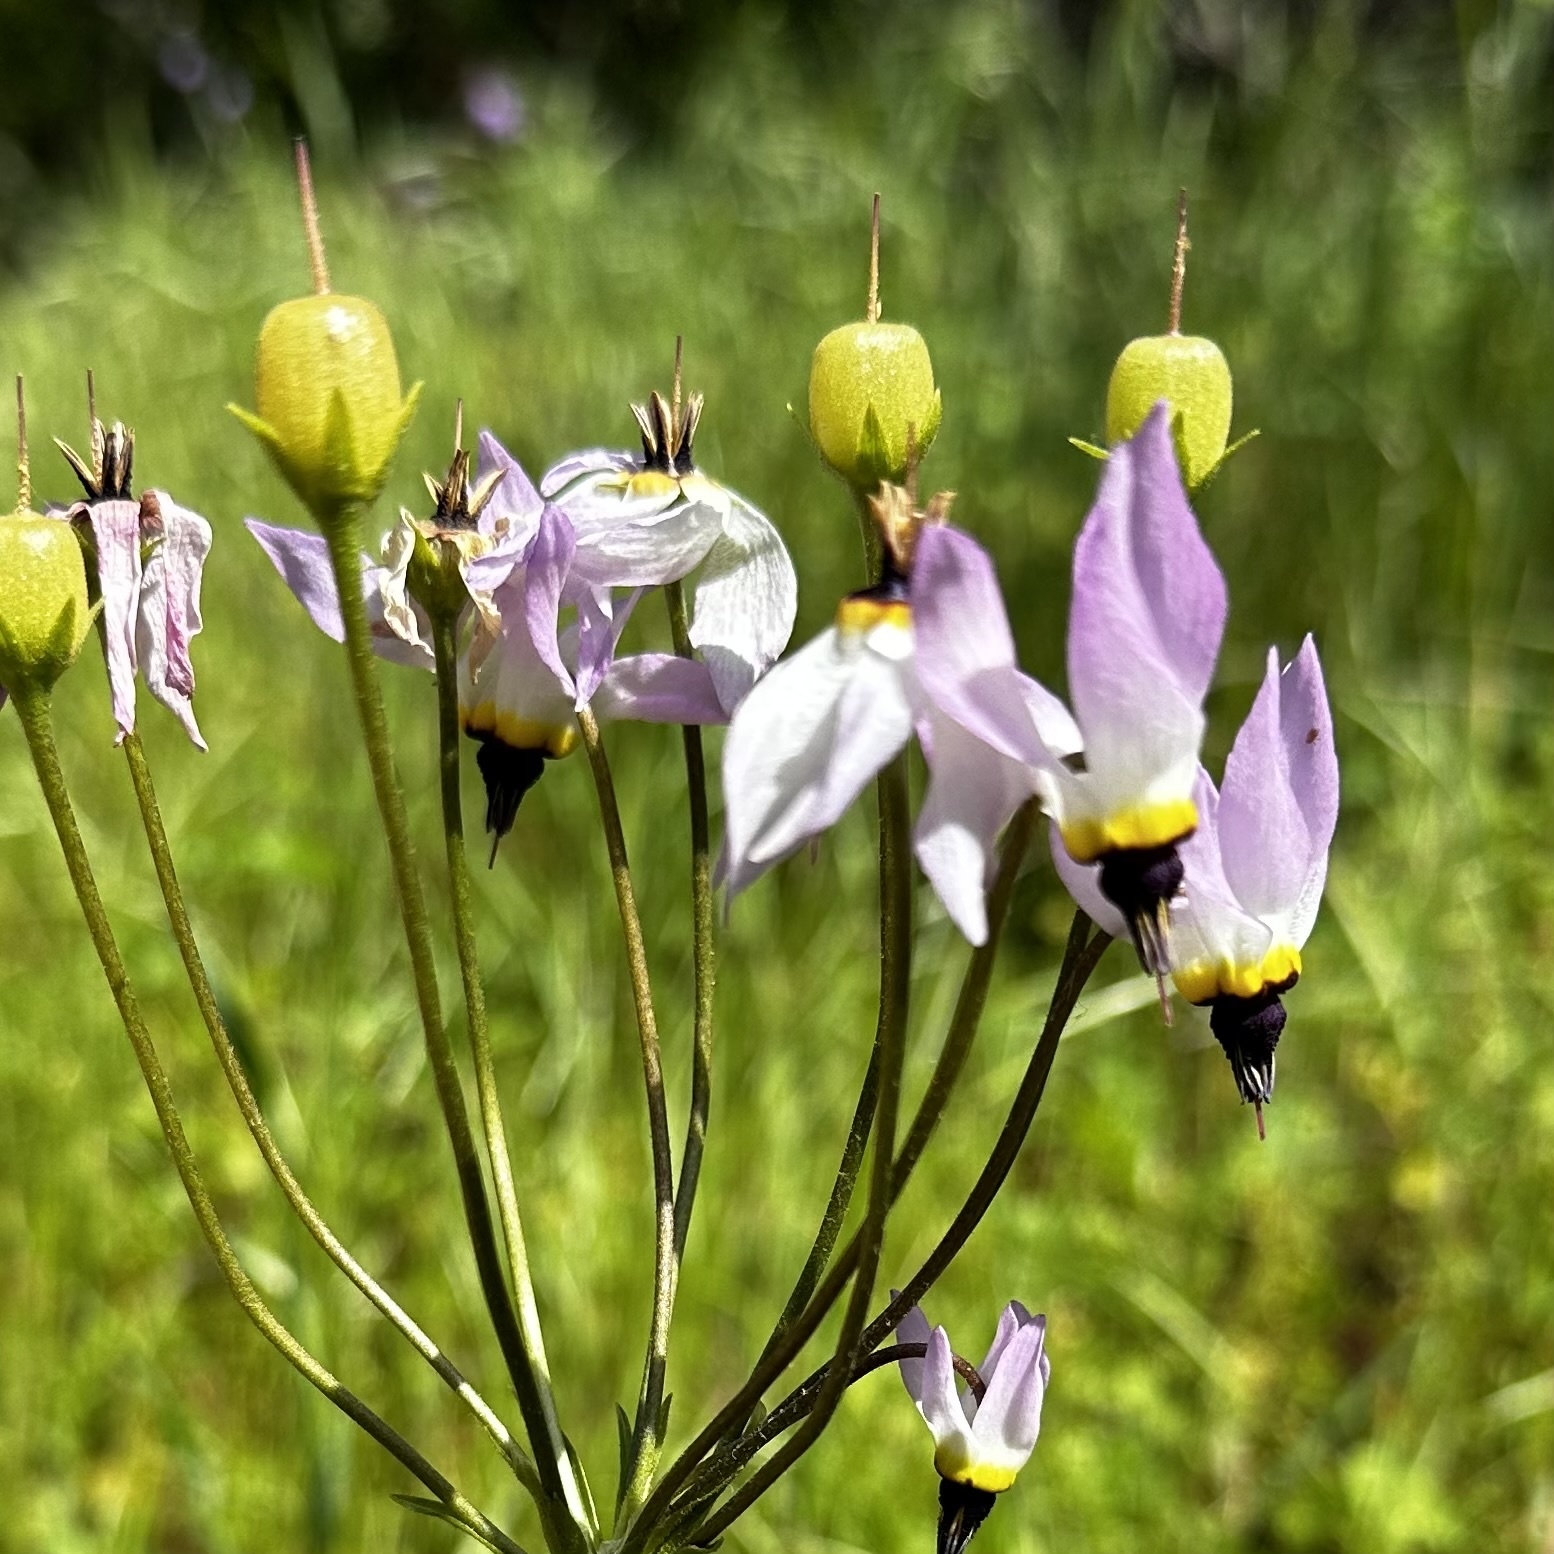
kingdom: Plantae
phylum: Tracheophyta
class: Magnoliopsida
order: Ericales
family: Primulaceae
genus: Dodecatheon
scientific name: Dodecatheon clevelandii
